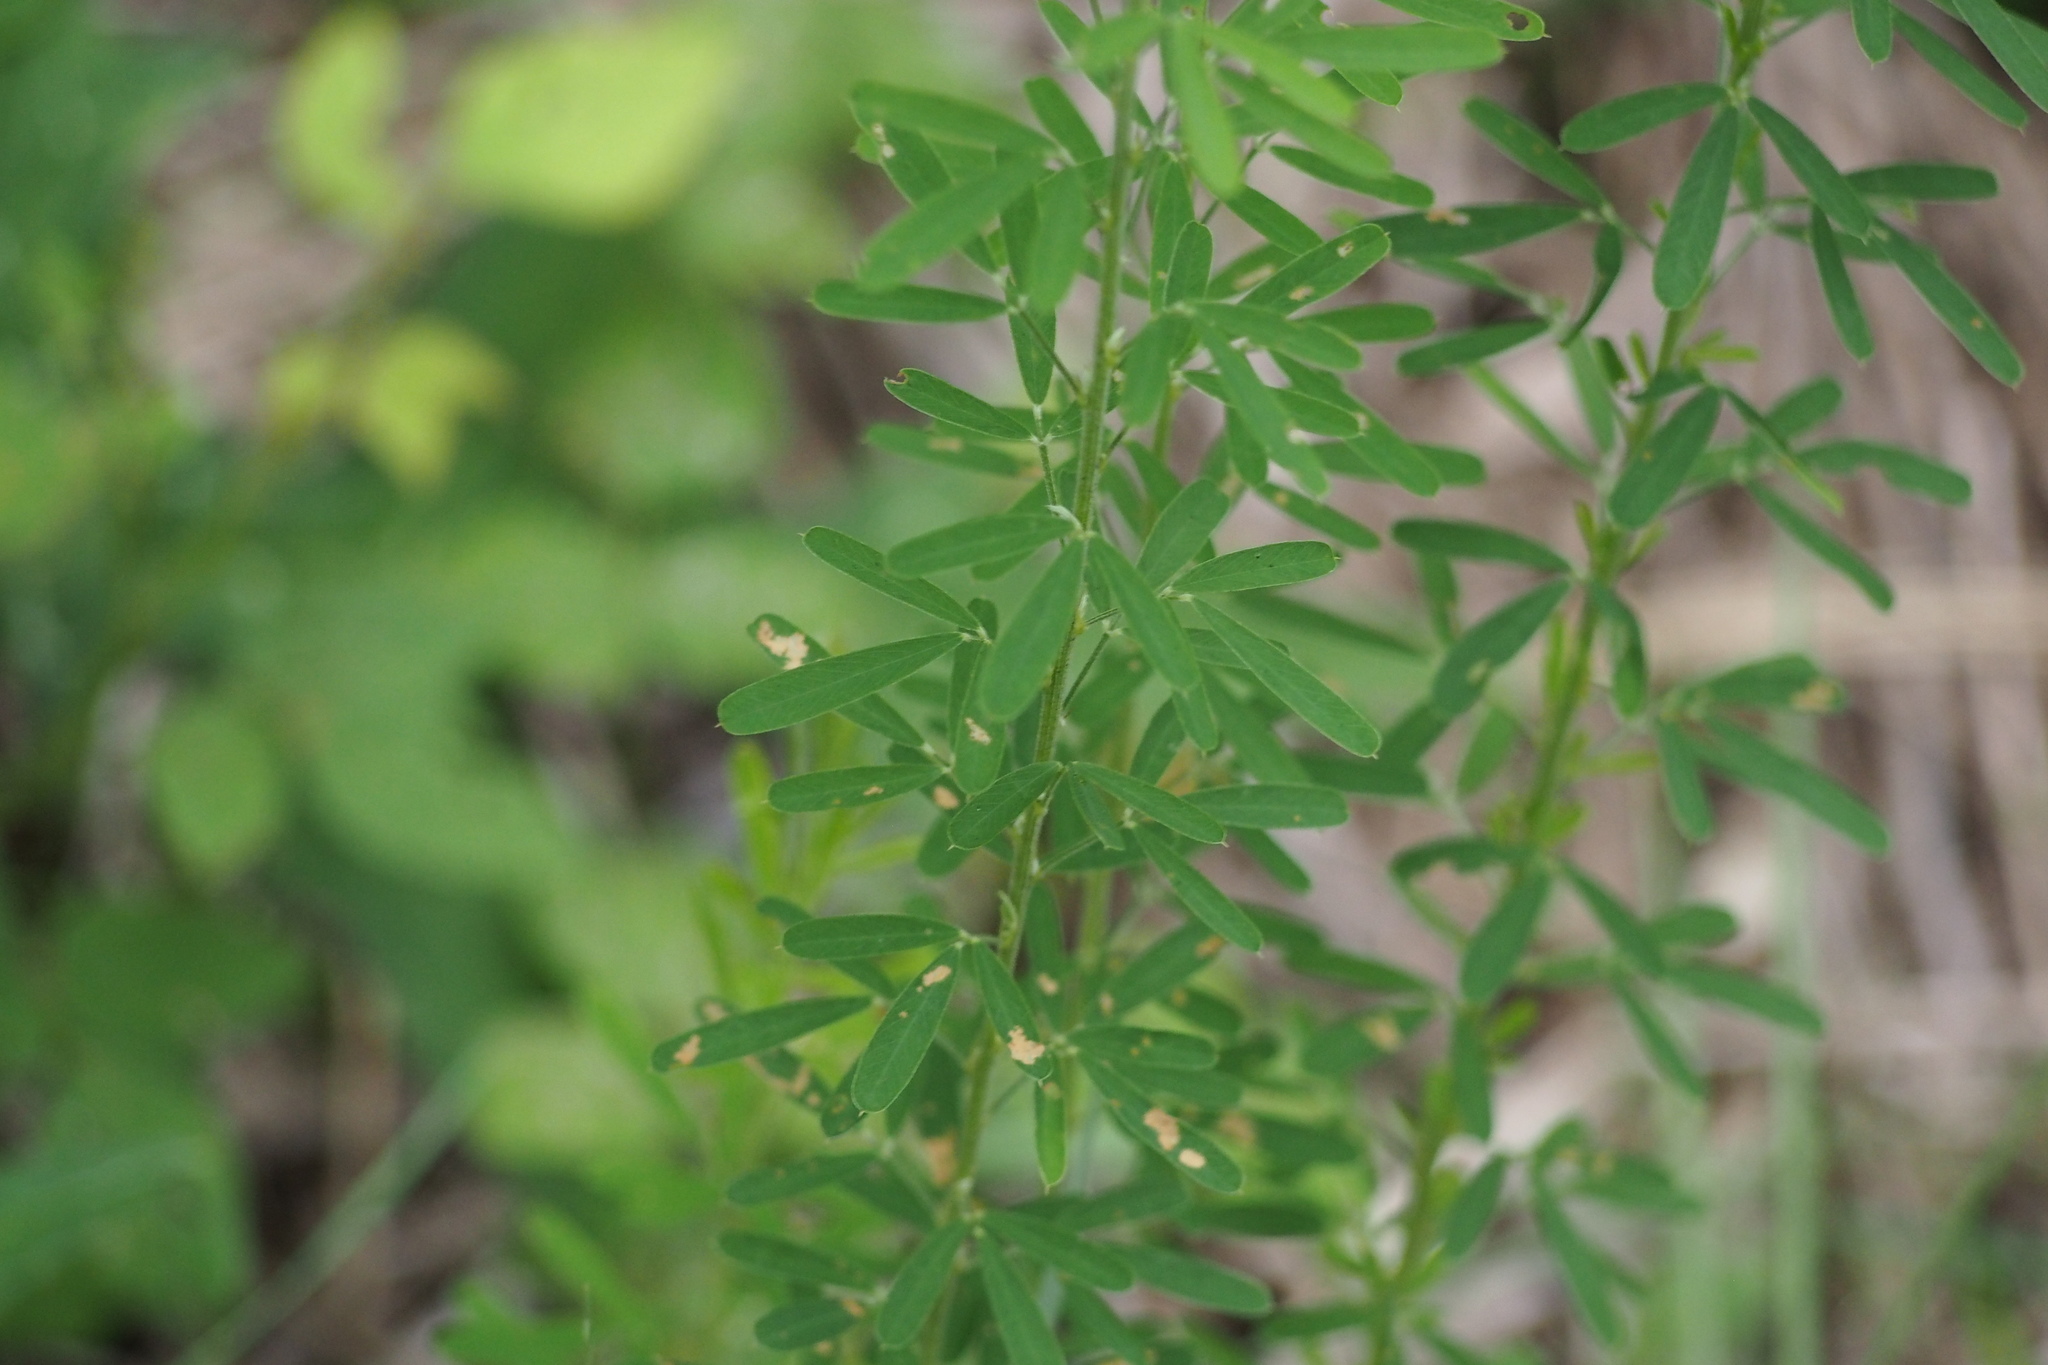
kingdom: Plantae
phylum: Tracheophyta
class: Magnoliopsida
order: Fabales
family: Fabaceae
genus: Lespedeza
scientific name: Lespedeza cuneata
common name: Chinese bush-clover
